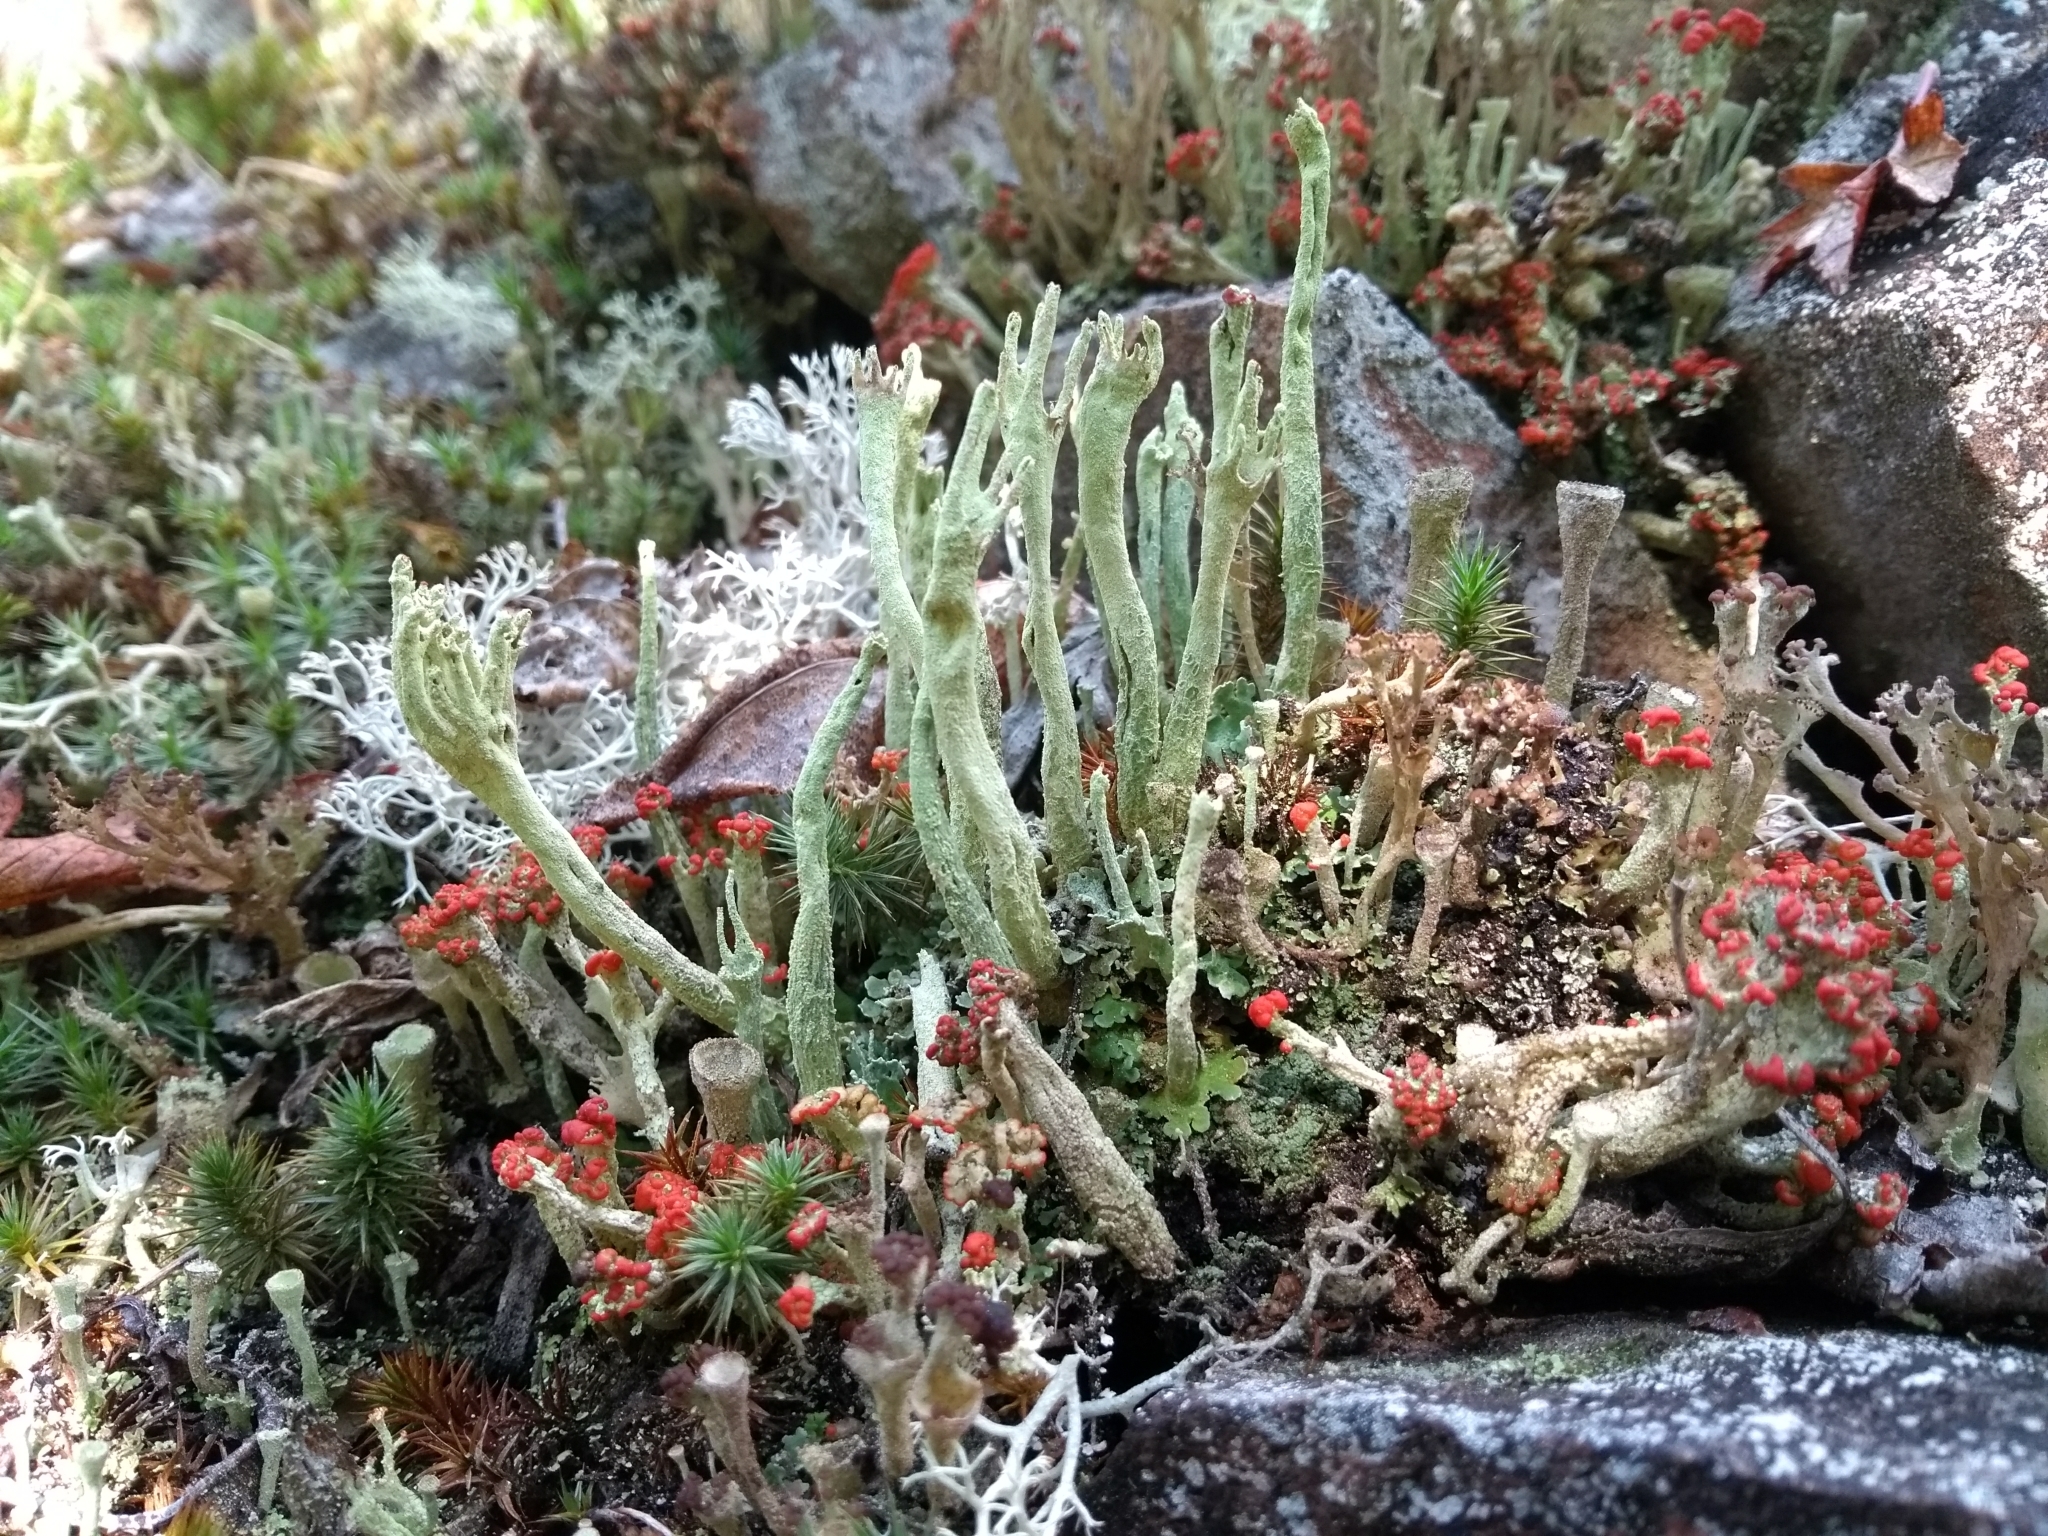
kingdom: Fungi
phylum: Ascomycota
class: Lecanoromycetes
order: Lecanorales
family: Cladoniaceae
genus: Cladonia
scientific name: Cladonia sulphurina
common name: Greater sulphur-cup lichen
